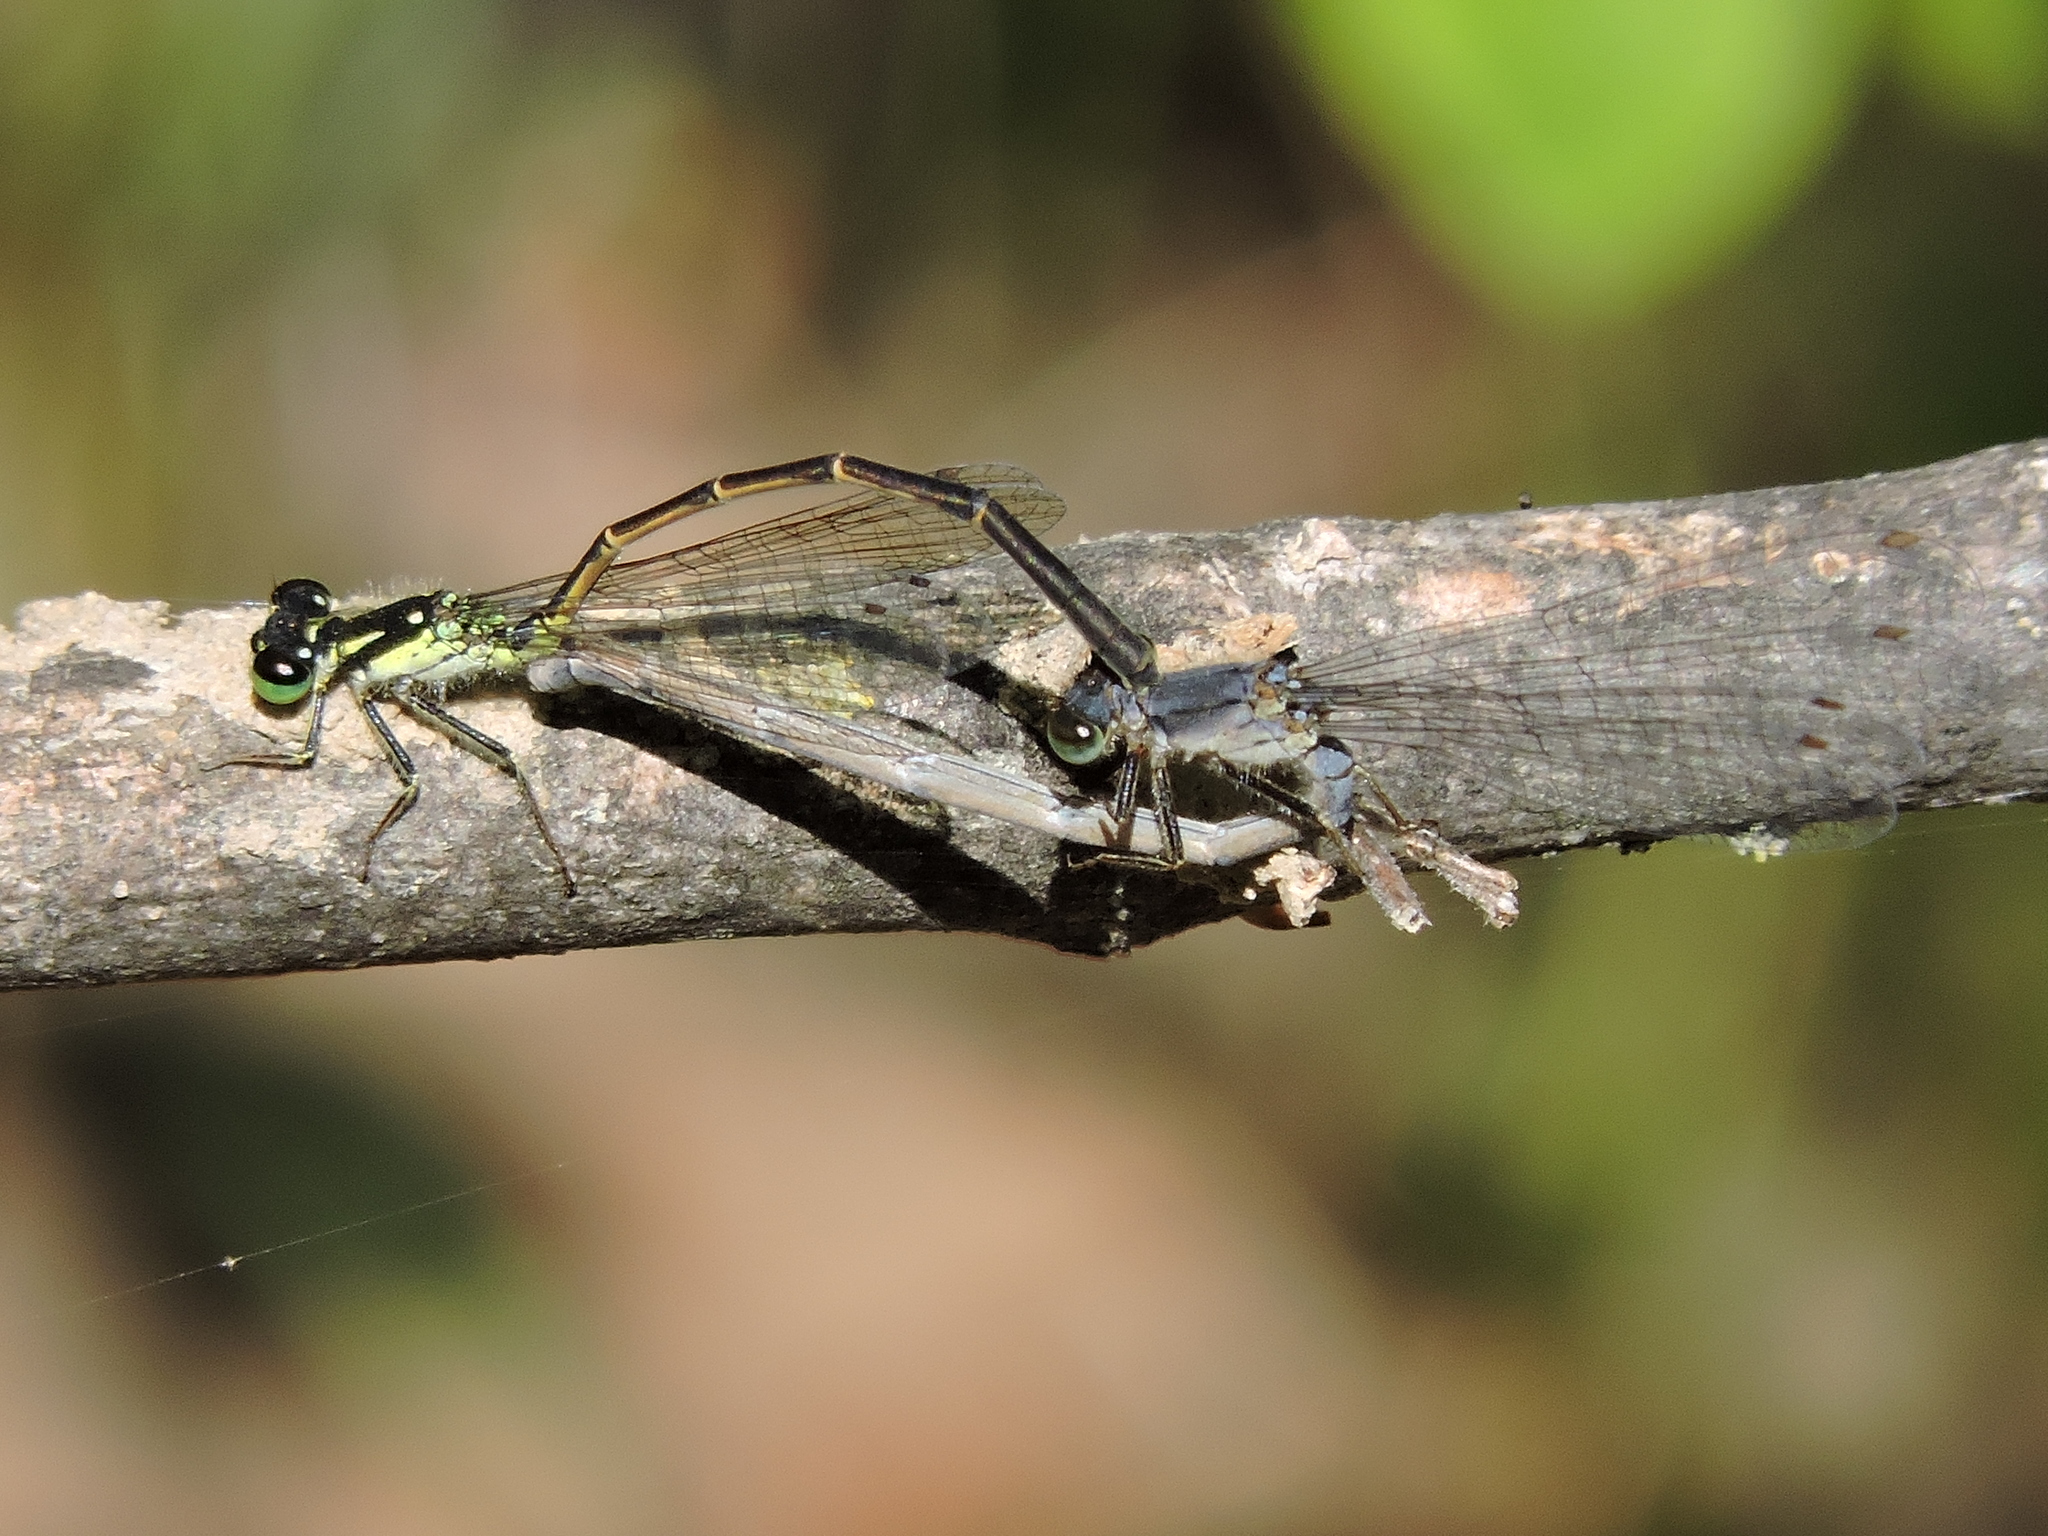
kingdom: Animalia
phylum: Arthropoda
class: Insecta
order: Odonata
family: Coenagrionidae
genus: Ischnura
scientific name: Ischnura posita
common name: Fragile forktail
